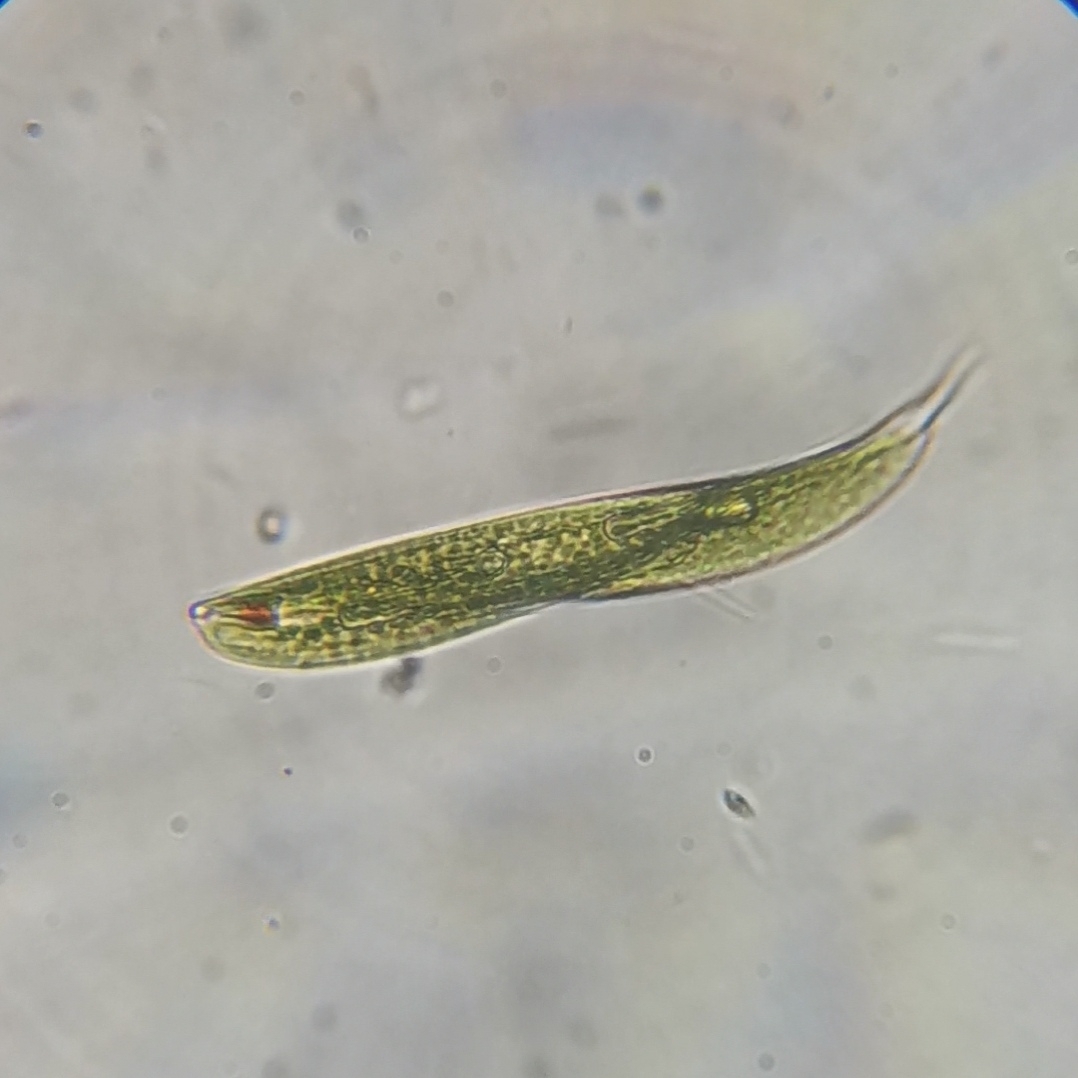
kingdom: Protozoa
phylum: Euglenozoa
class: Euglenoidea
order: Euglenida
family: Phacidae
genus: Lepocinclis
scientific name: Lepocinclis tripteris
